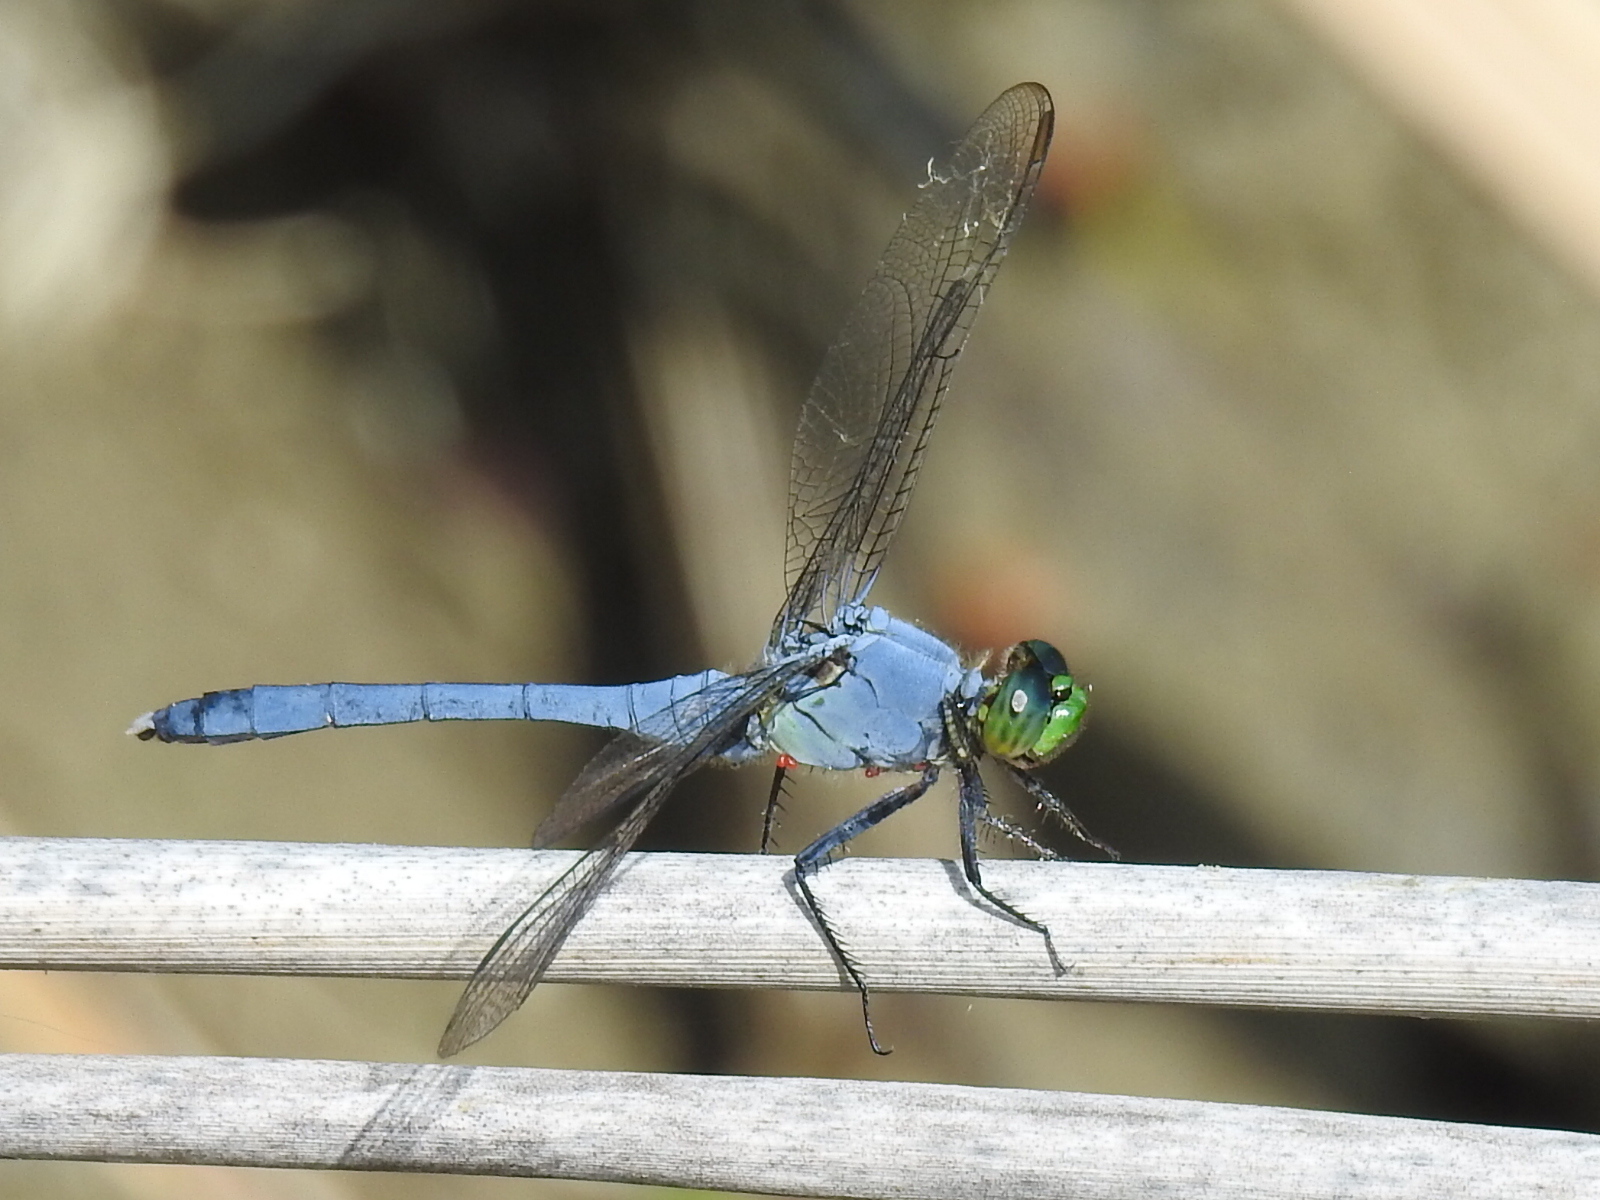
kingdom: Animalia
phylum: Arthropoda
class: Insecta
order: Odonata
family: Libellulidae
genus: Erythemis
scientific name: Erythemis simplicicollis
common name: Eastern pondhawk
